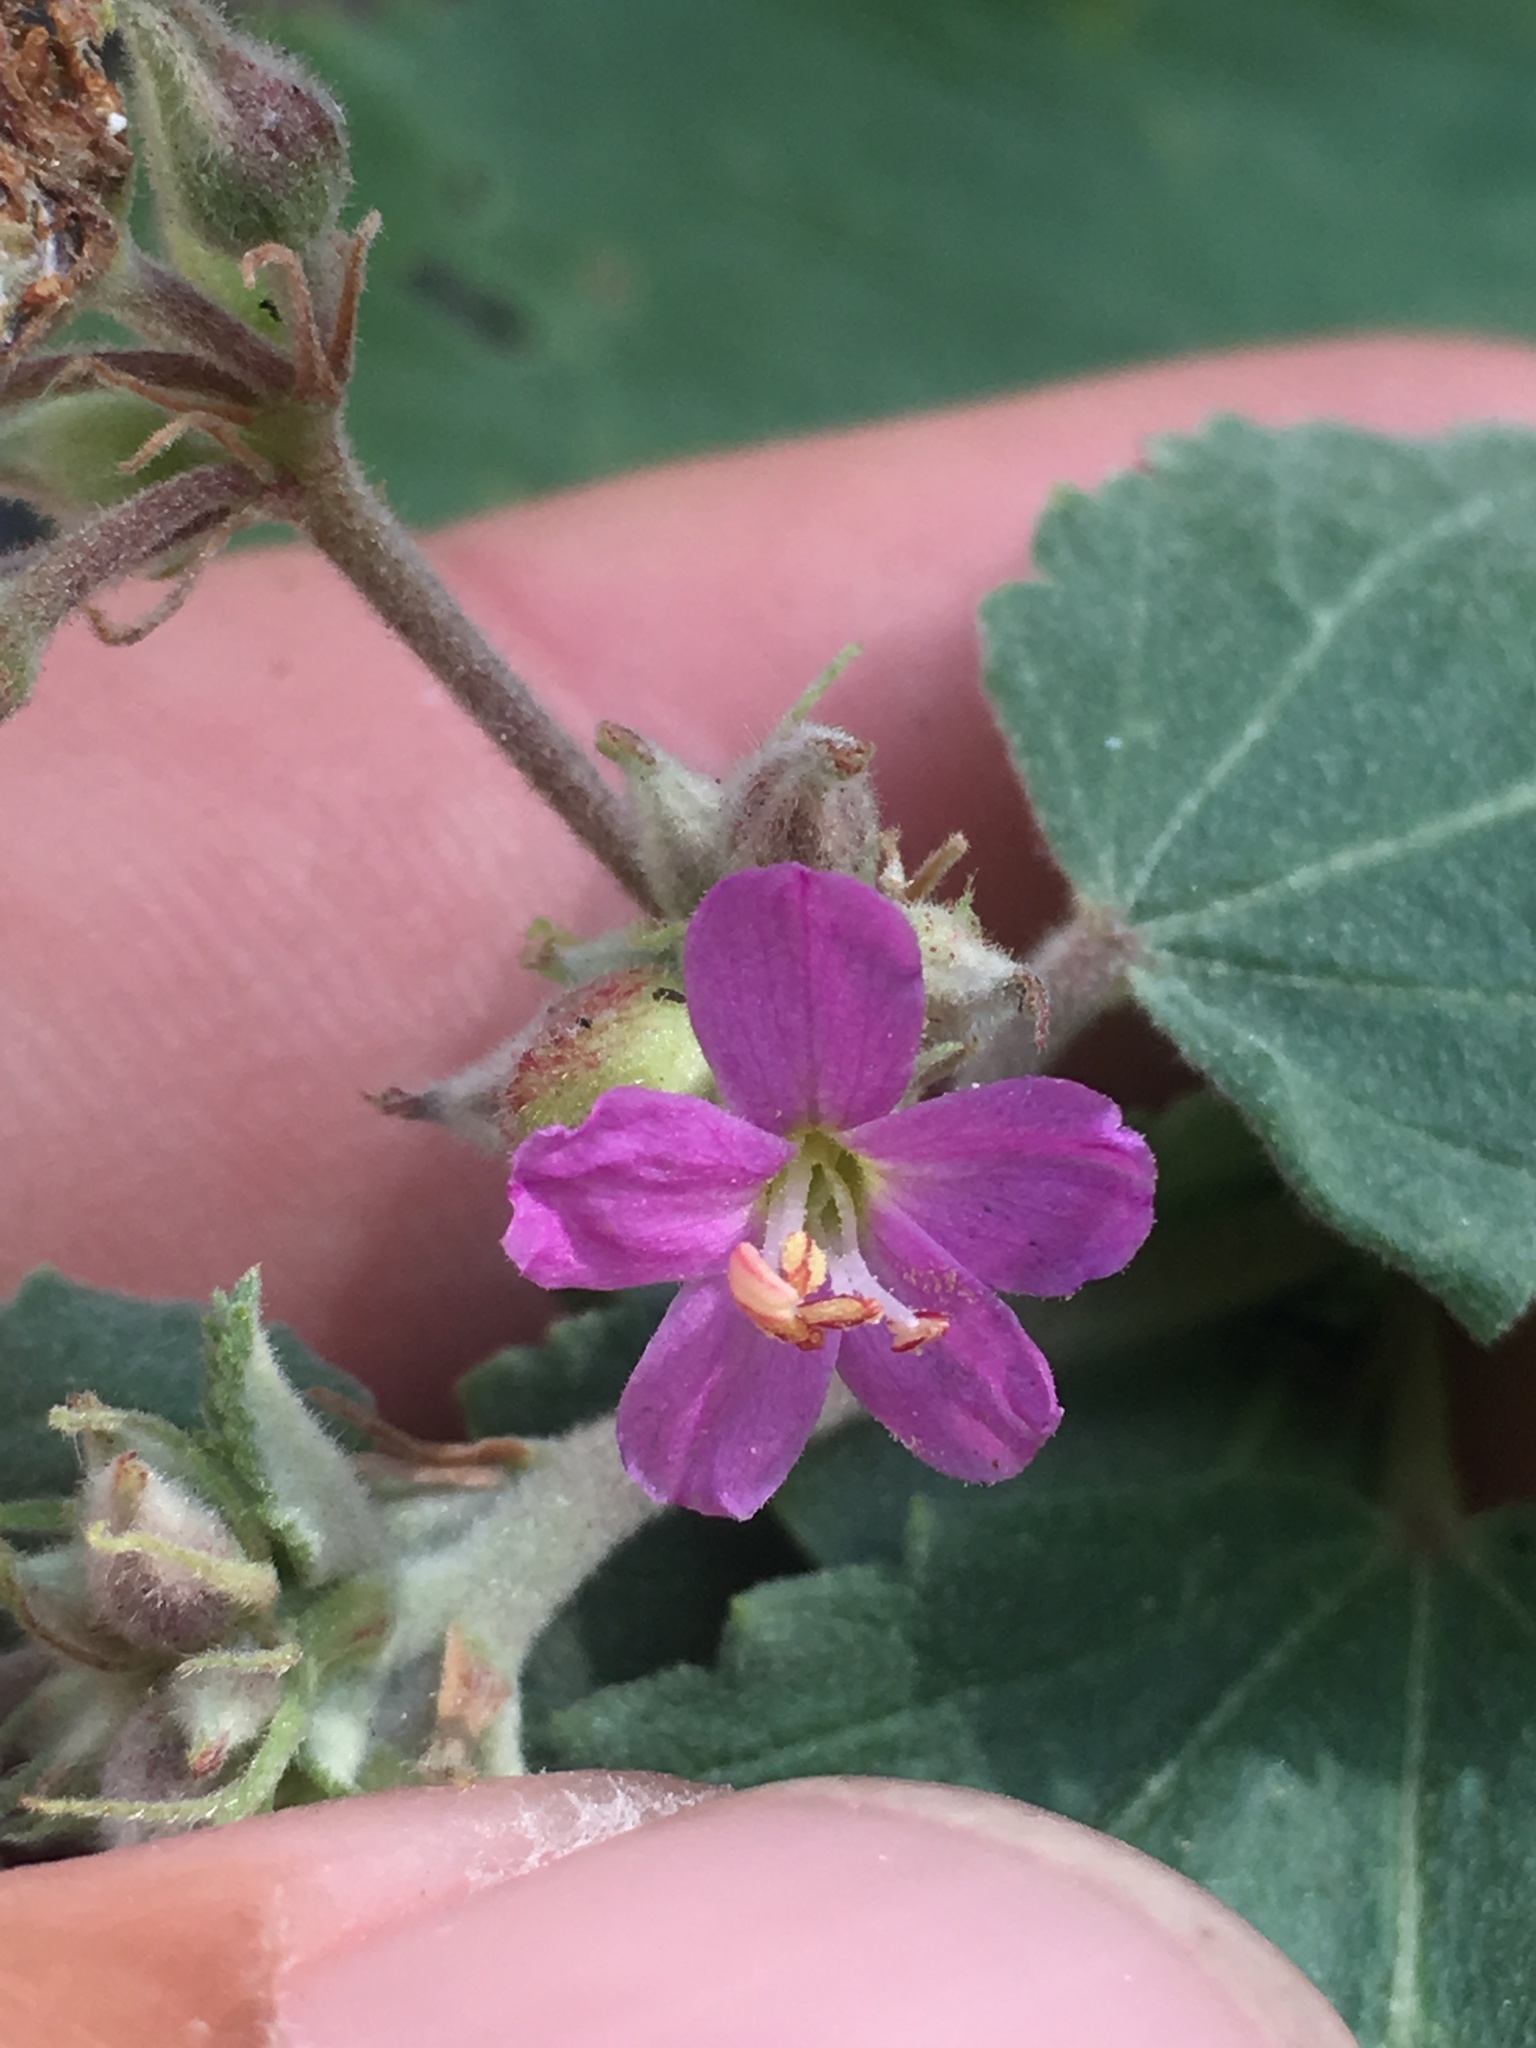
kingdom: Plantae
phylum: Tracheophyta
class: Magnoliopsida
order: Malvales
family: Malvaceae
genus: Melochia
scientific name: Melochia tomentosa
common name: Black torch
